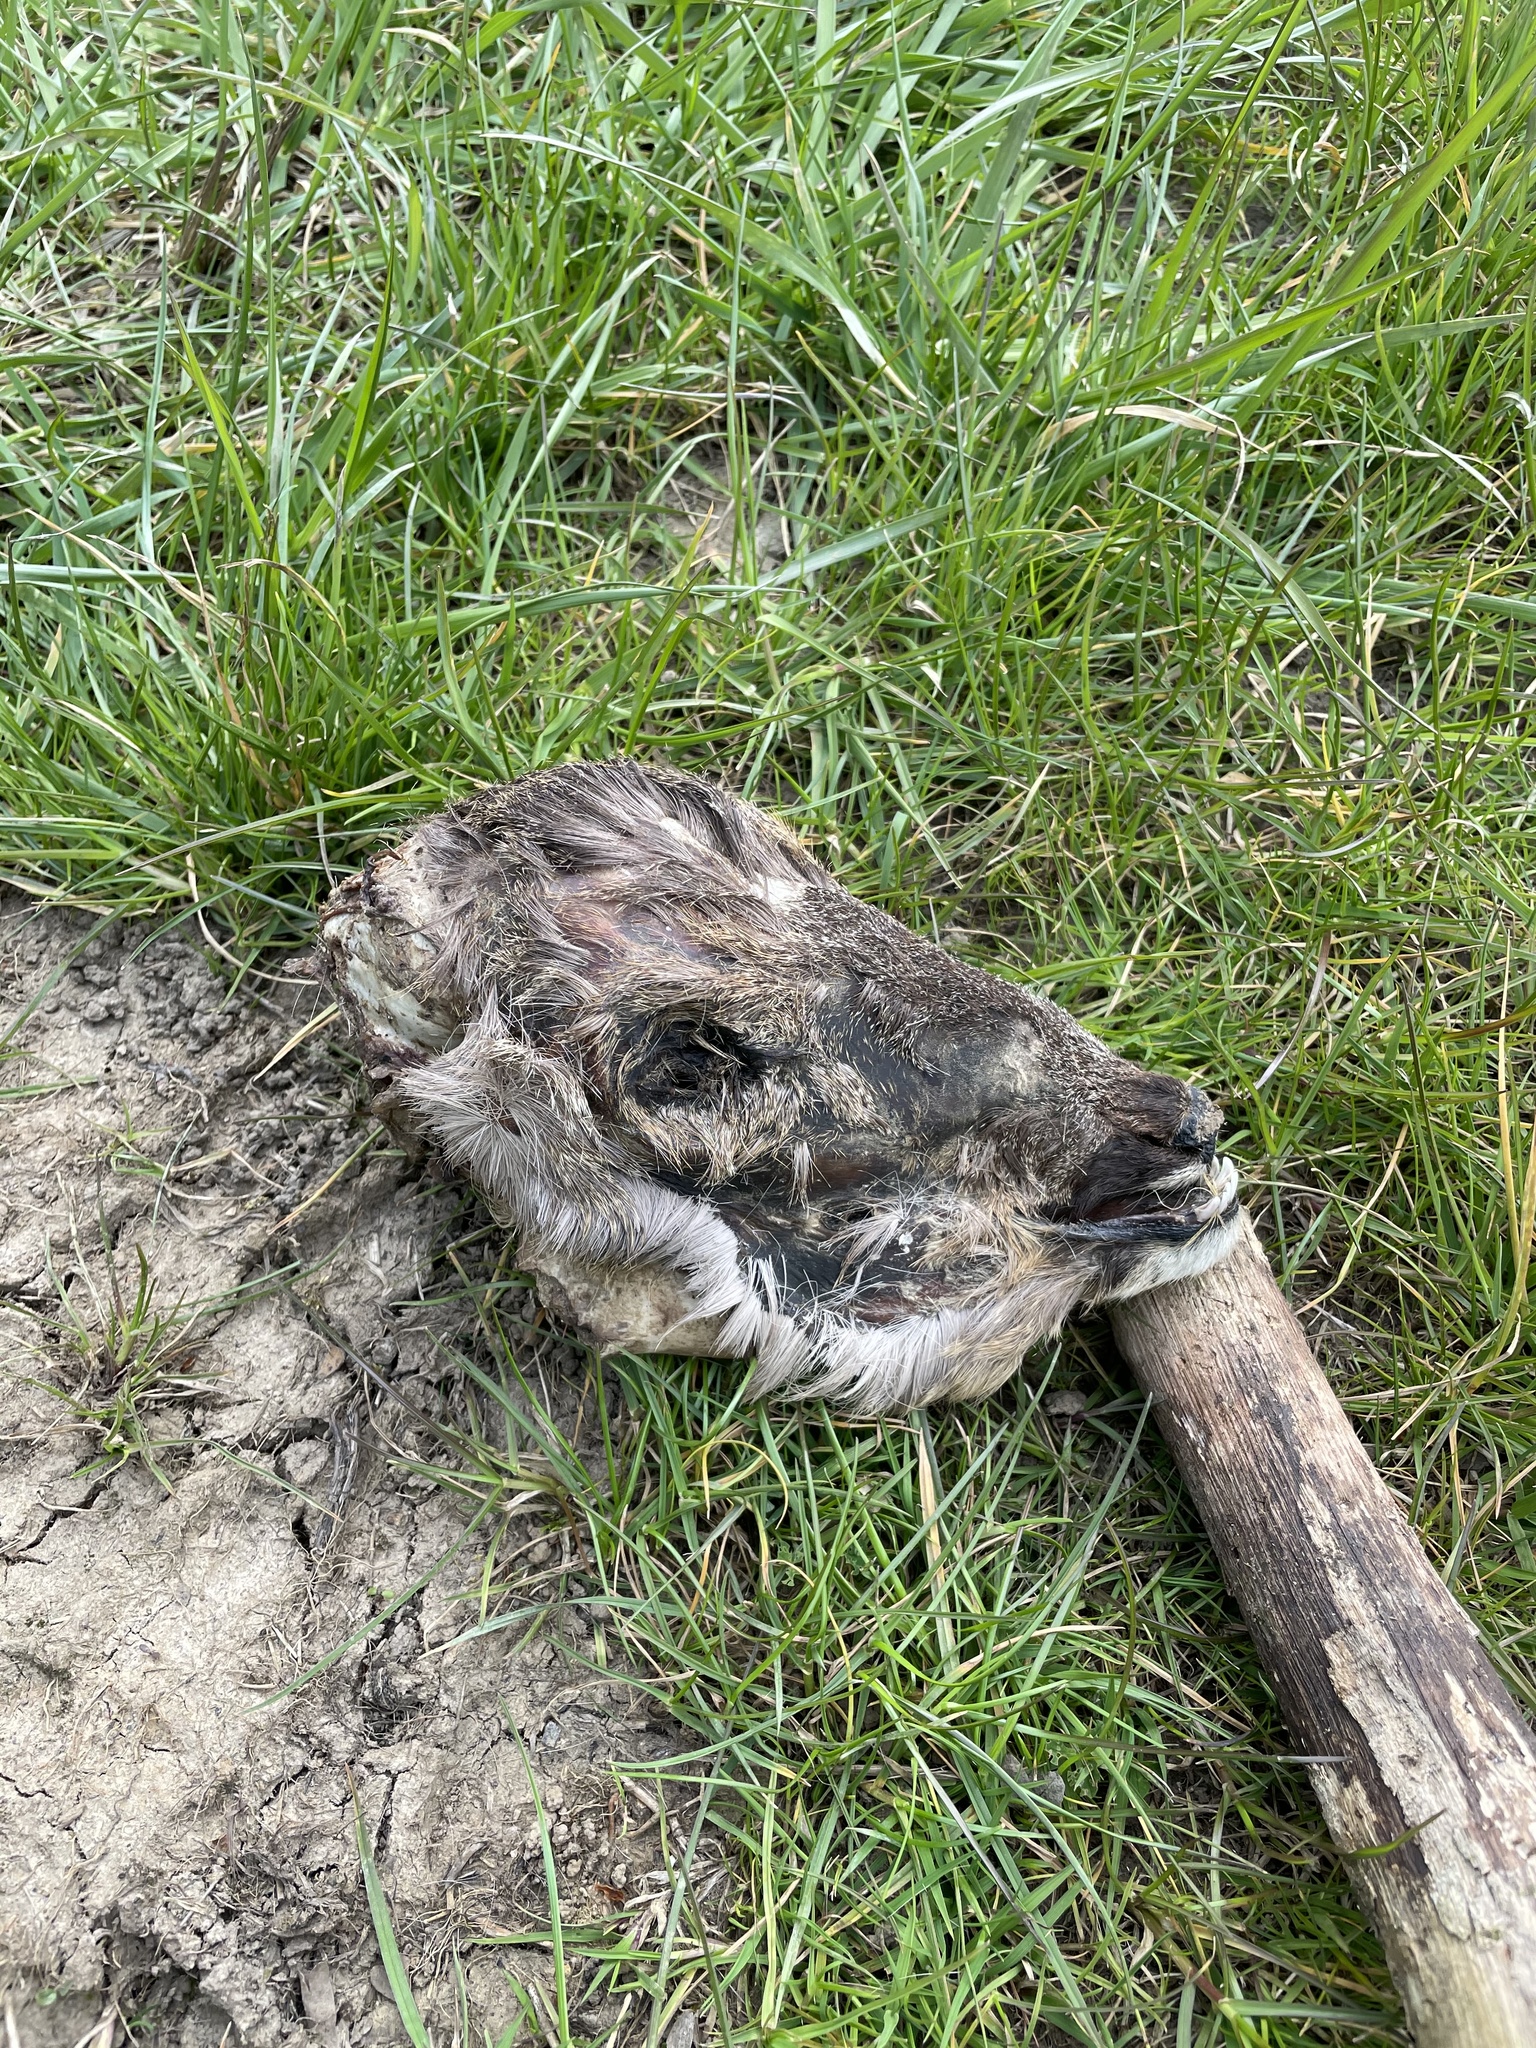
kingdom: Animalia
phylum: Chordata
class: Mammalia
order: Artiodactyla
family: Cervidae
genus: Capreolus
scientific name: Capreolus capreolus
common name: Western roe deer
